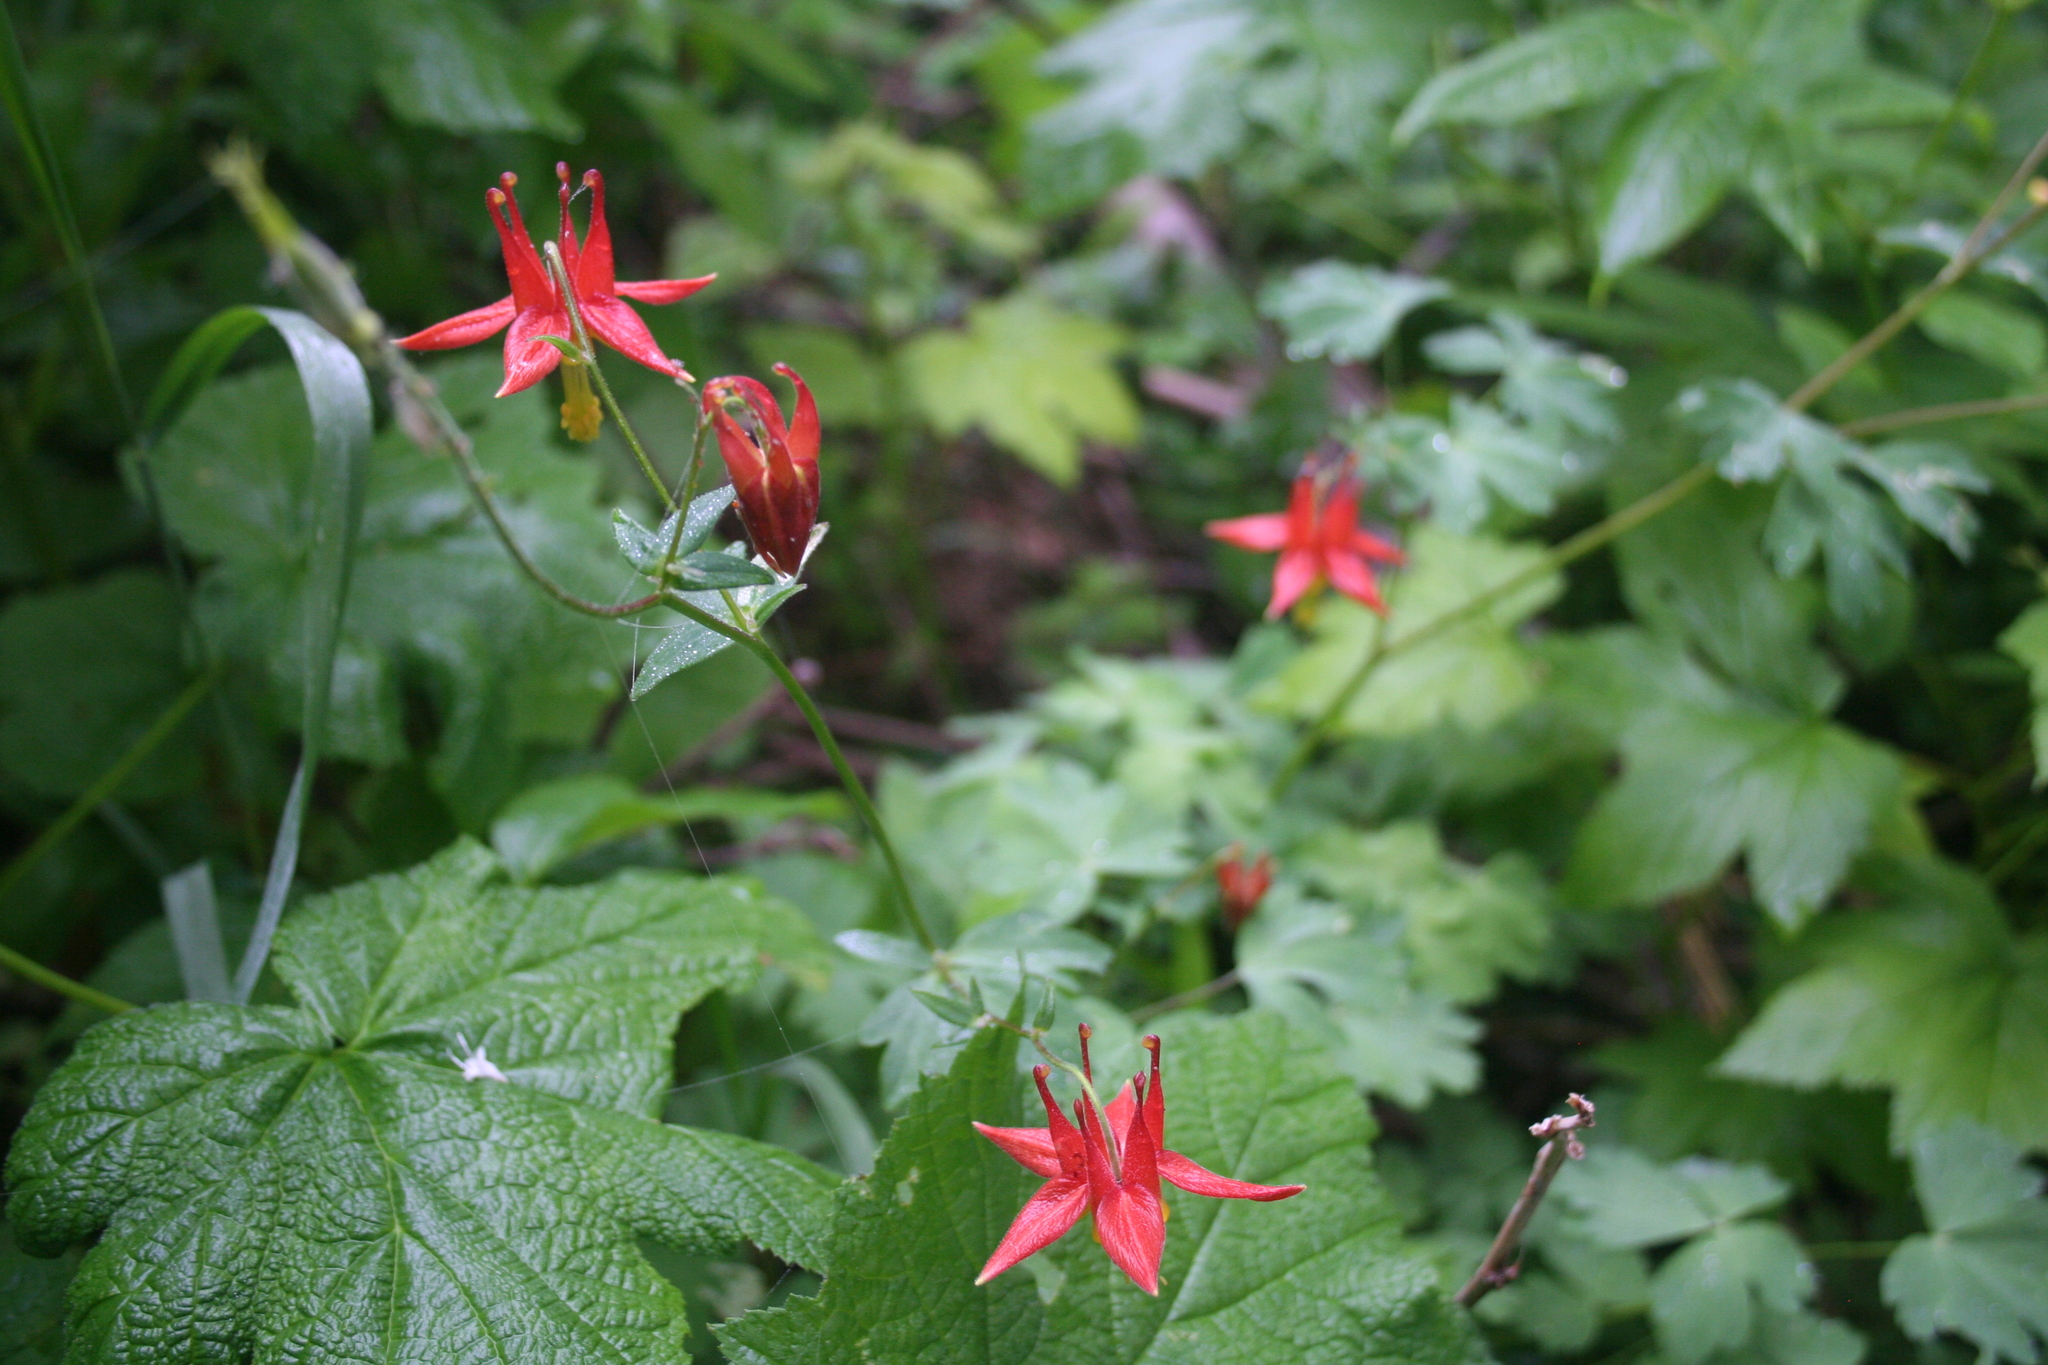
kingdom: Plantae
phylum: Tracheophyta
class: Magnoliopsida
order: Ranunculales
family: Ranunculaceae
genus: Aquilegia
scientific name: Aquilegia formosa
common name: Sitka columbine
